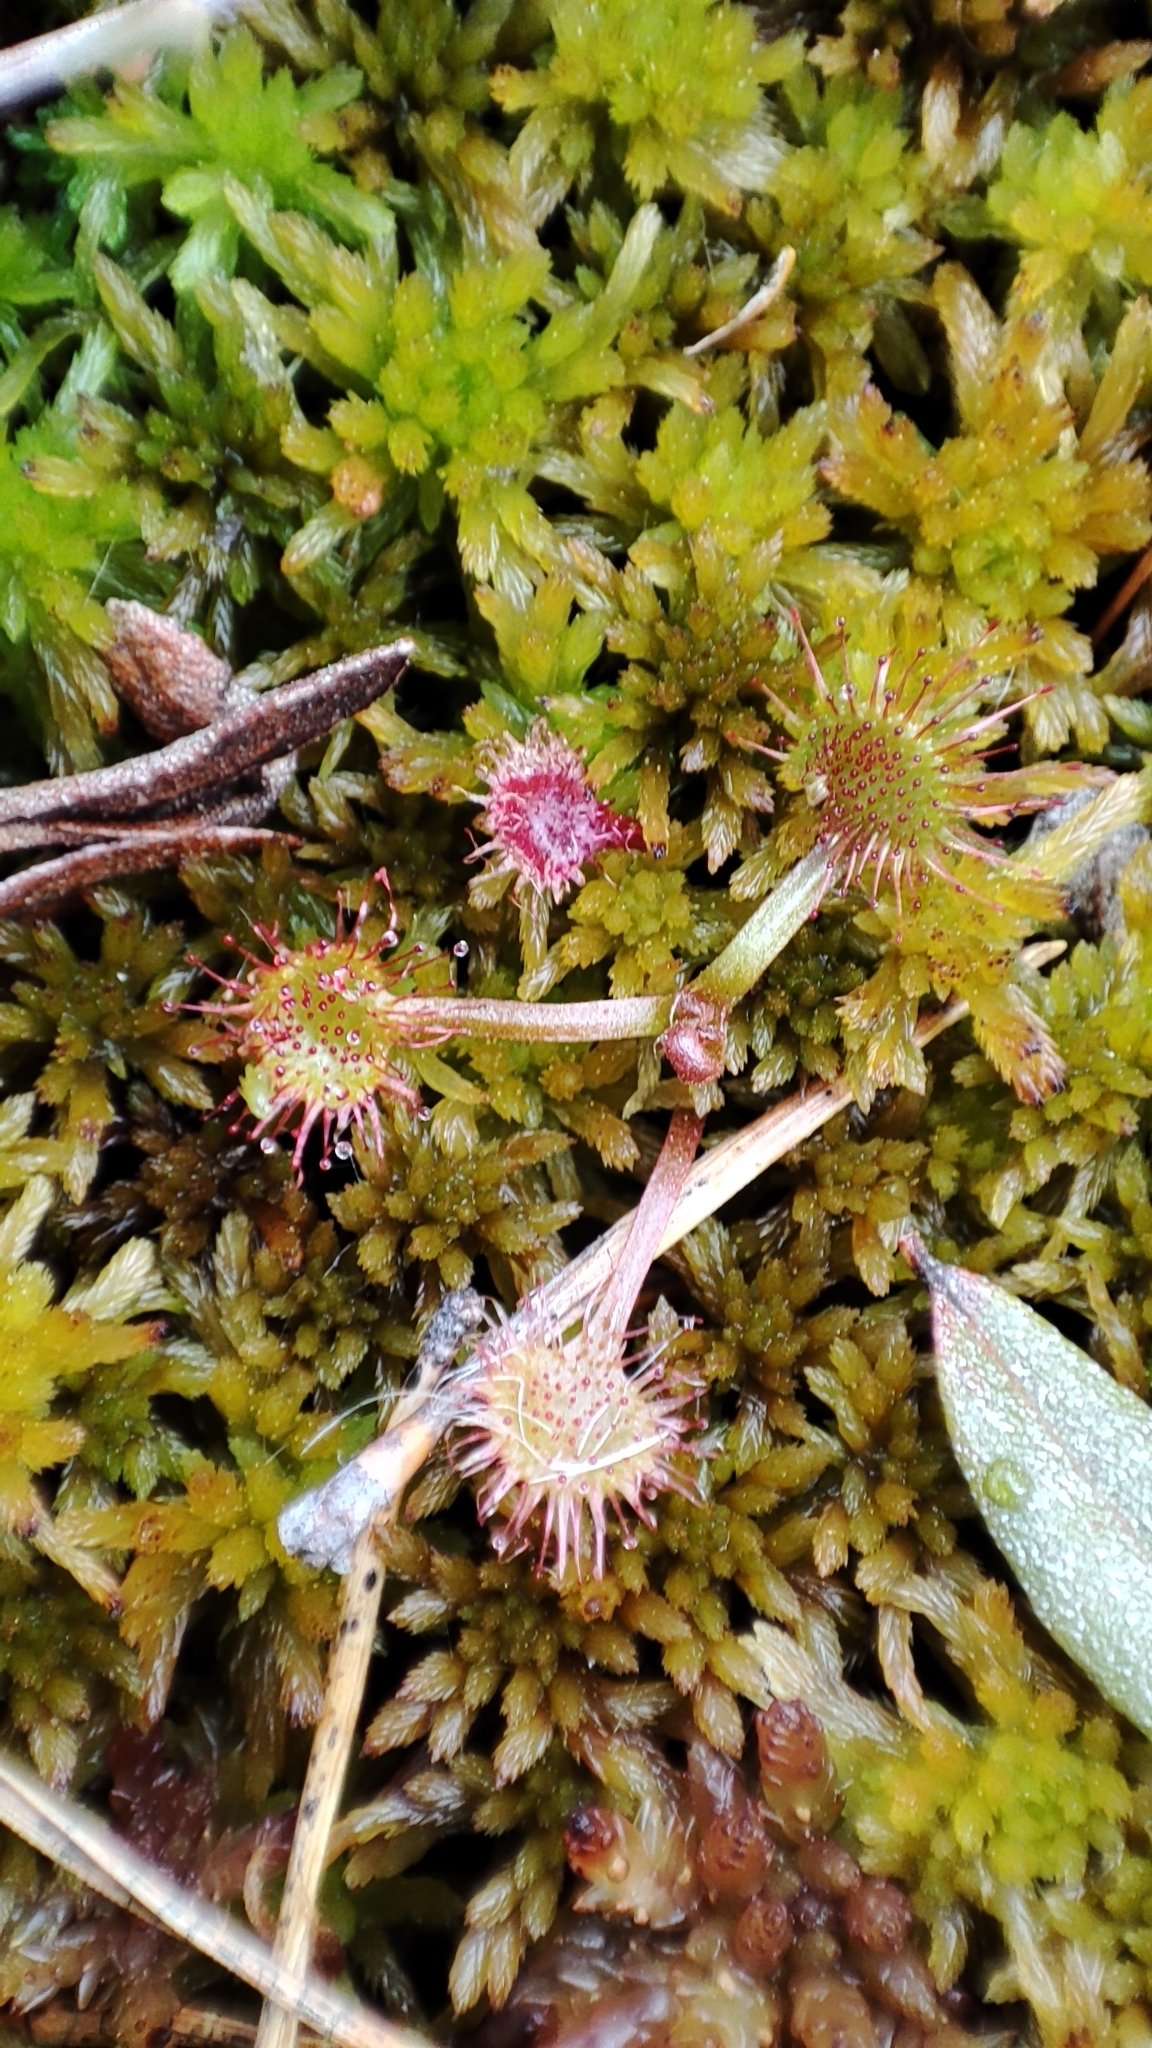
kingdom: Plantae
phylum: Tracheophyta
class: Magnoliopsida
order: Caryophyllales
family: Droseraceae
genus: Drosera
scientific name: Drosera rotundifolia
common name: Round-leaved sundew
